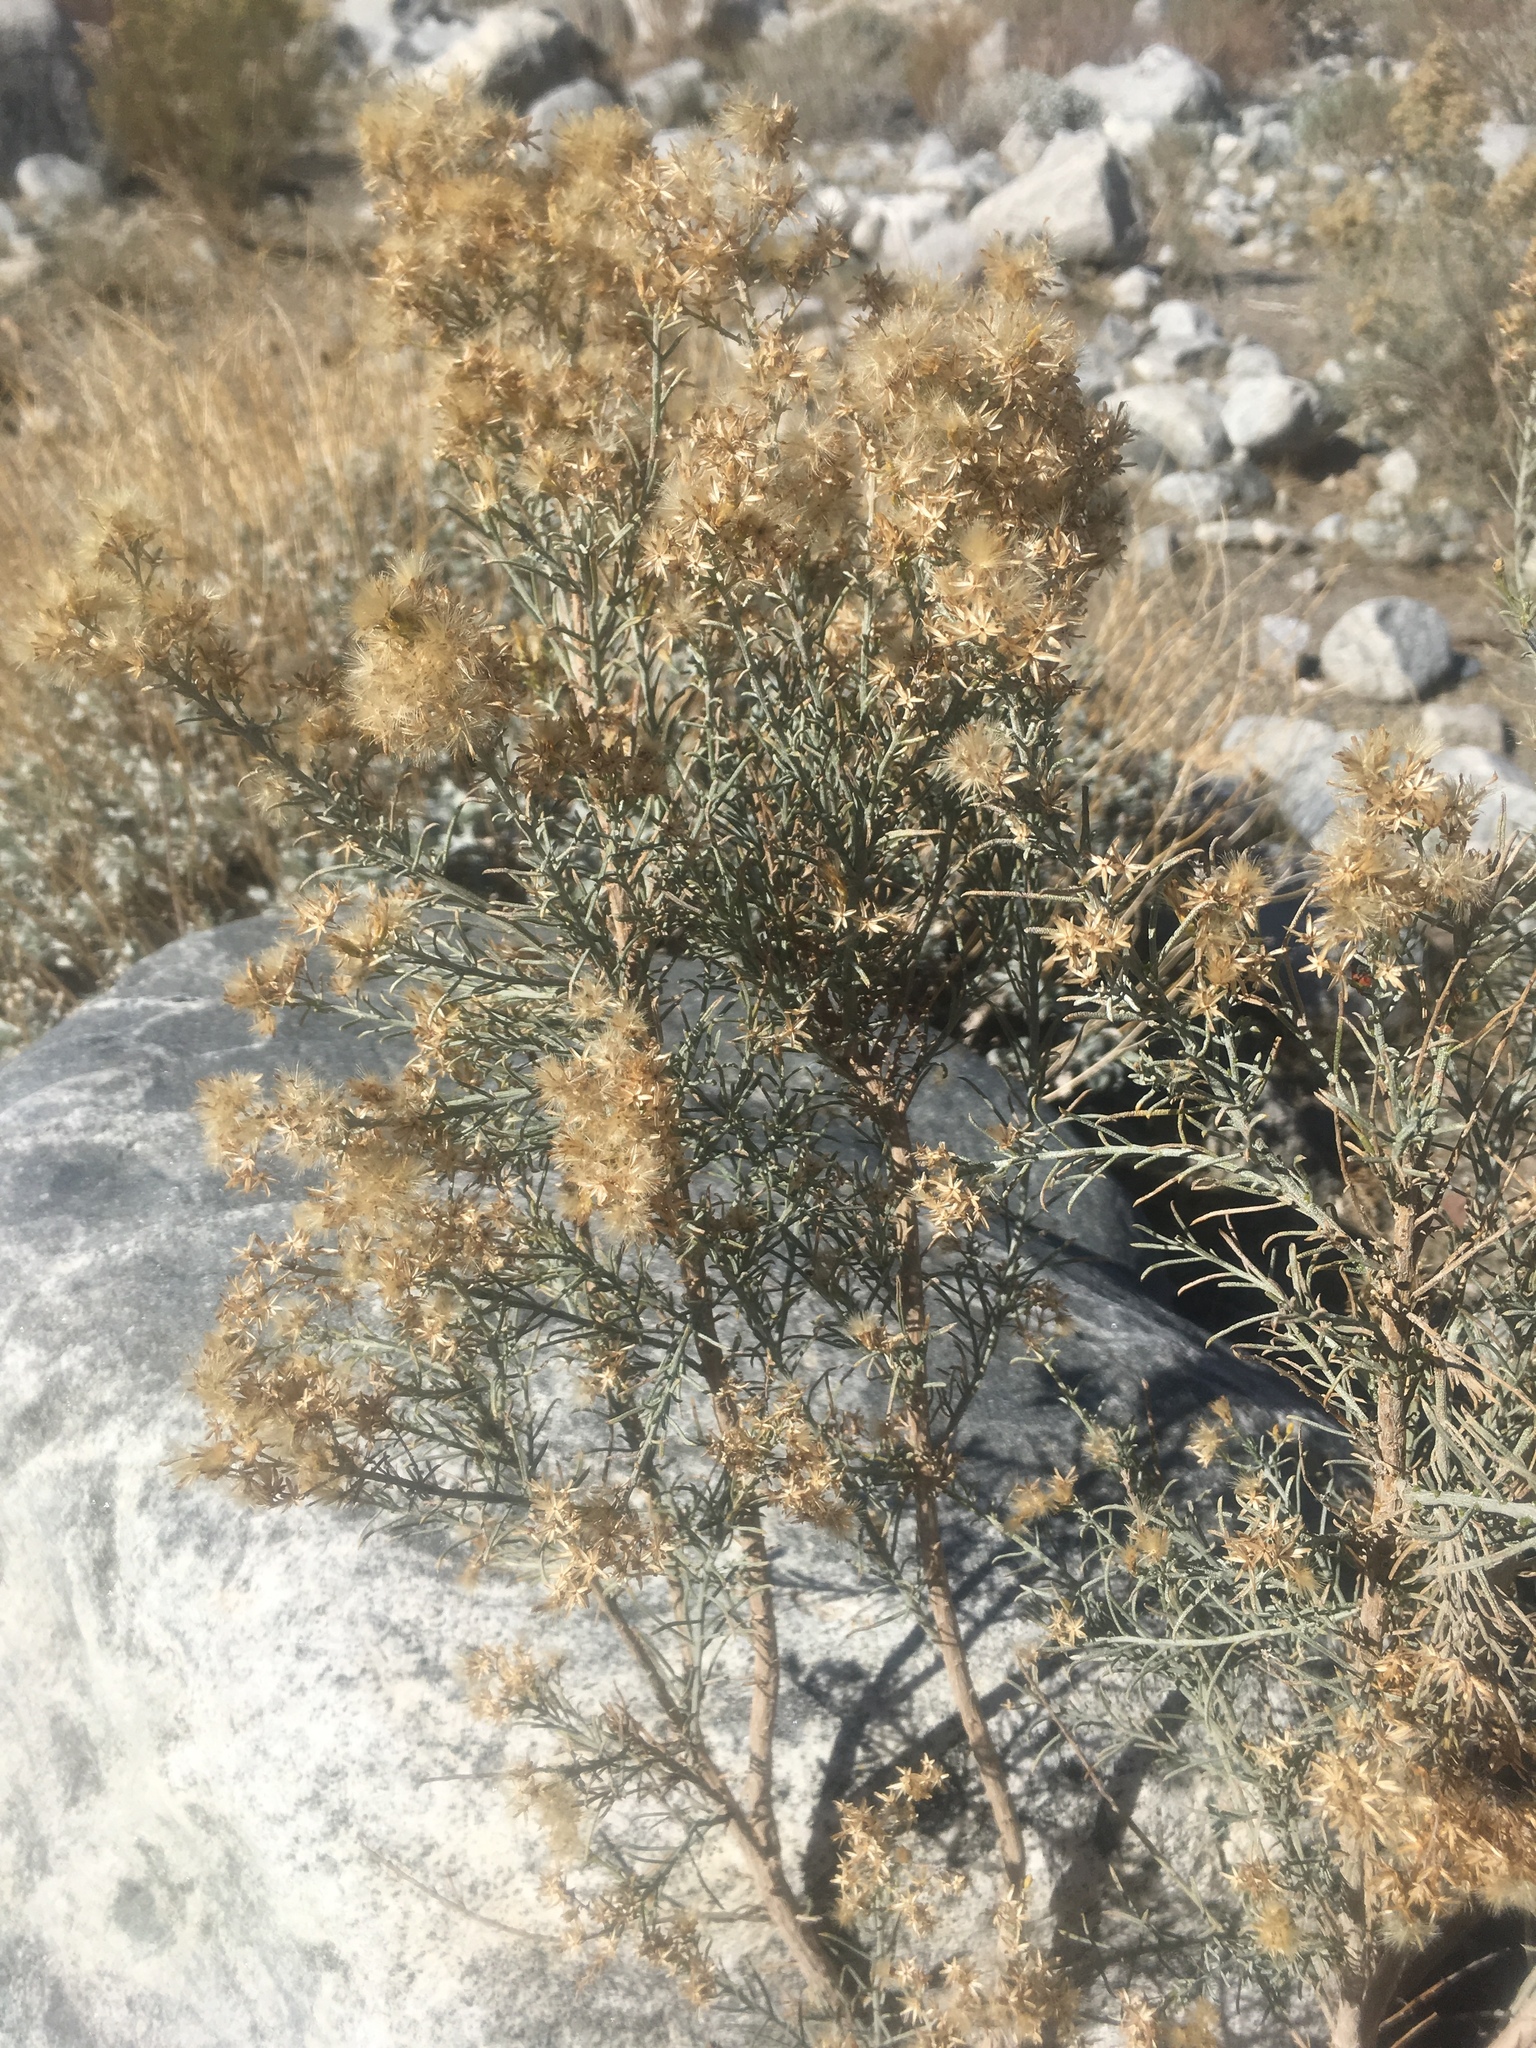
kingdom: Plantae
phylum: Tracheophyta
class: Magnoliopsida
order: Asterales
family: Asteraceae
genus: Ericameria
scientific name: Ericameria paniculata
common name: Punctate rabbitbrush
